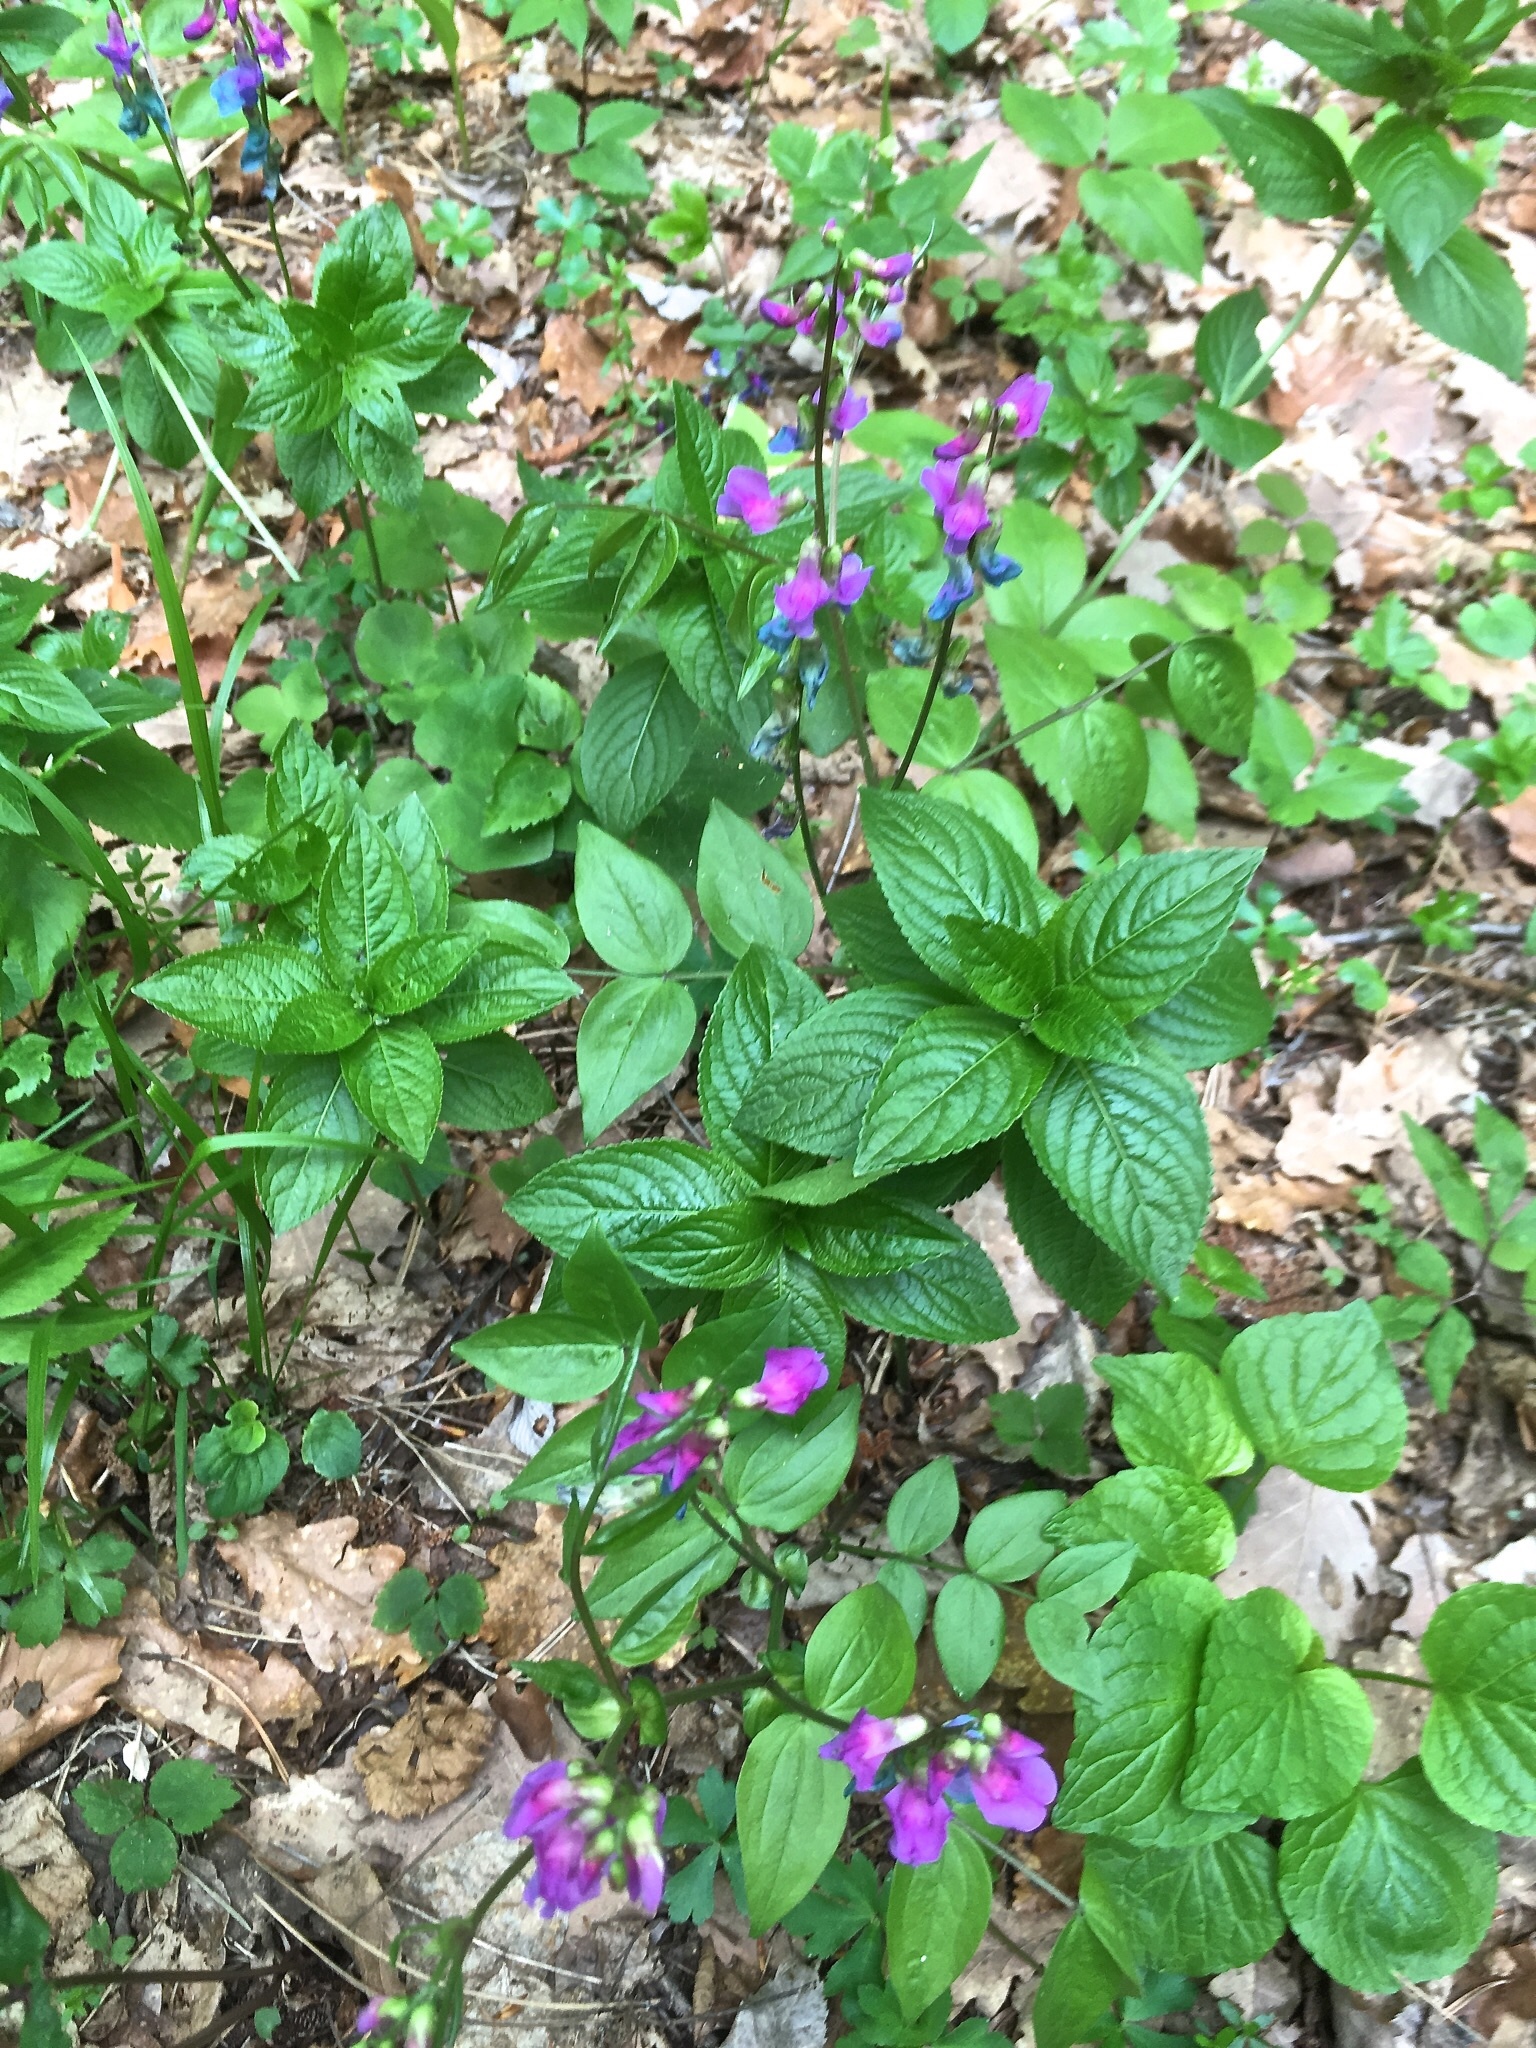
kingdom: Plantae
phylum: Tracheophyta
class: Magnoliopsida
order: Fabales
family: Fabaceae
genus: Lathyrus
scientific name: Lathyrus vernus
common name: Spring pea
